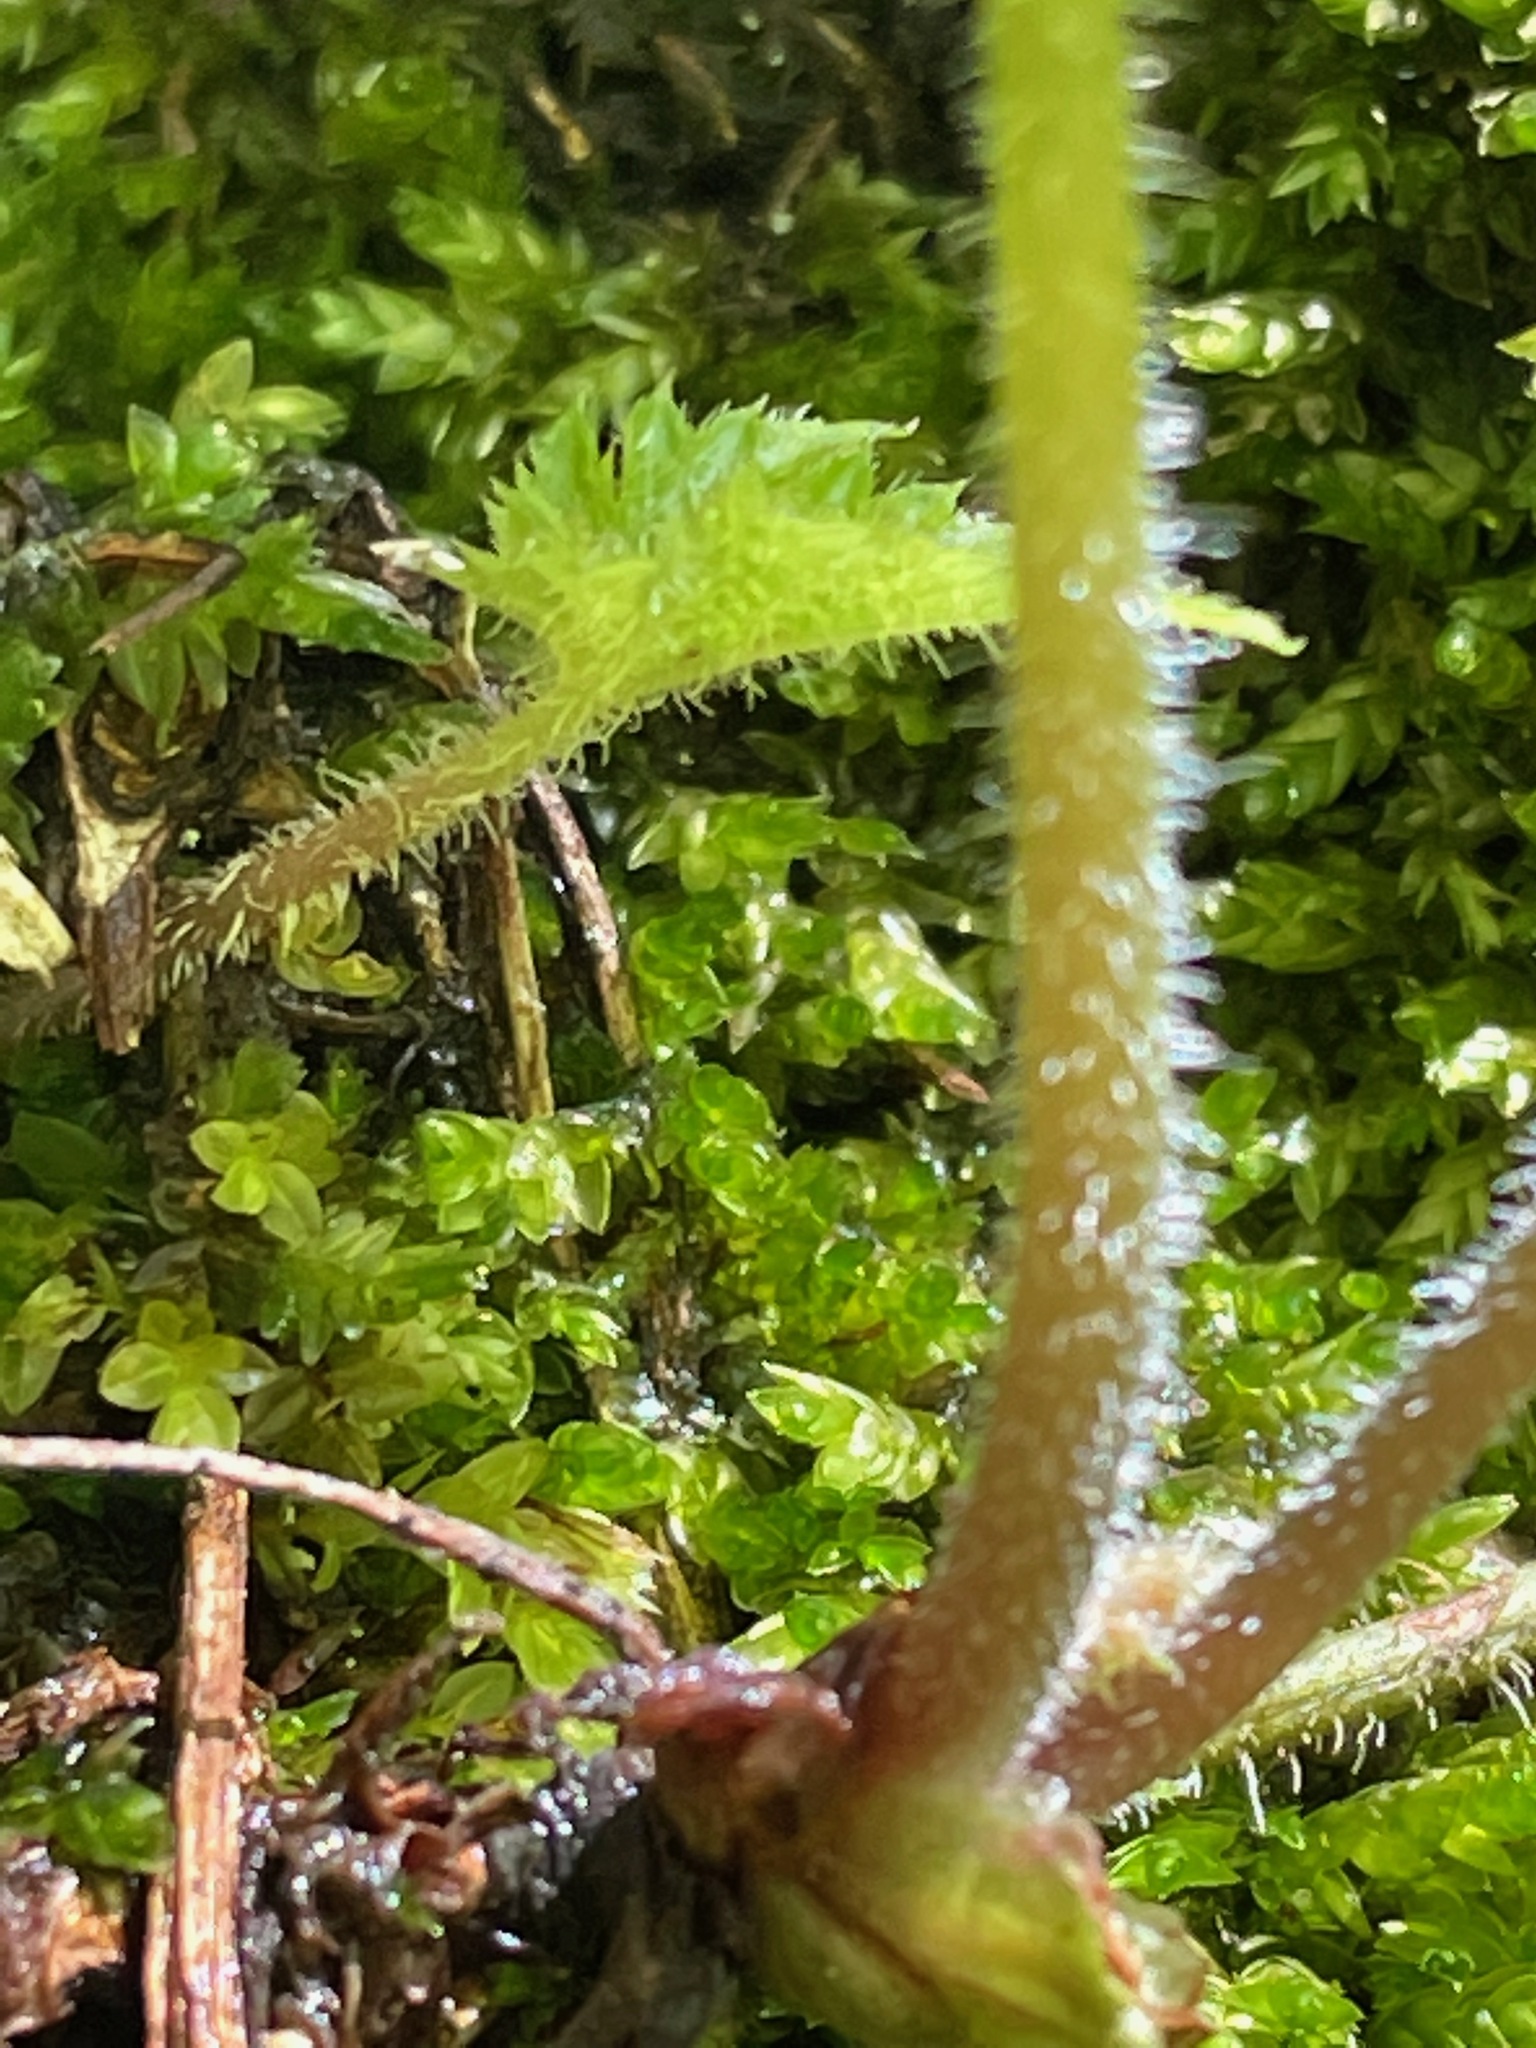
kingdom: Plantae
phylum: Tracheophyta
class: Magnoliopsida
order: Saxifragales
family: Saxifragaceae
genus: Tiarella
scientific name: Tiarella stolonifera
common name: Stoloniferous foamflower
